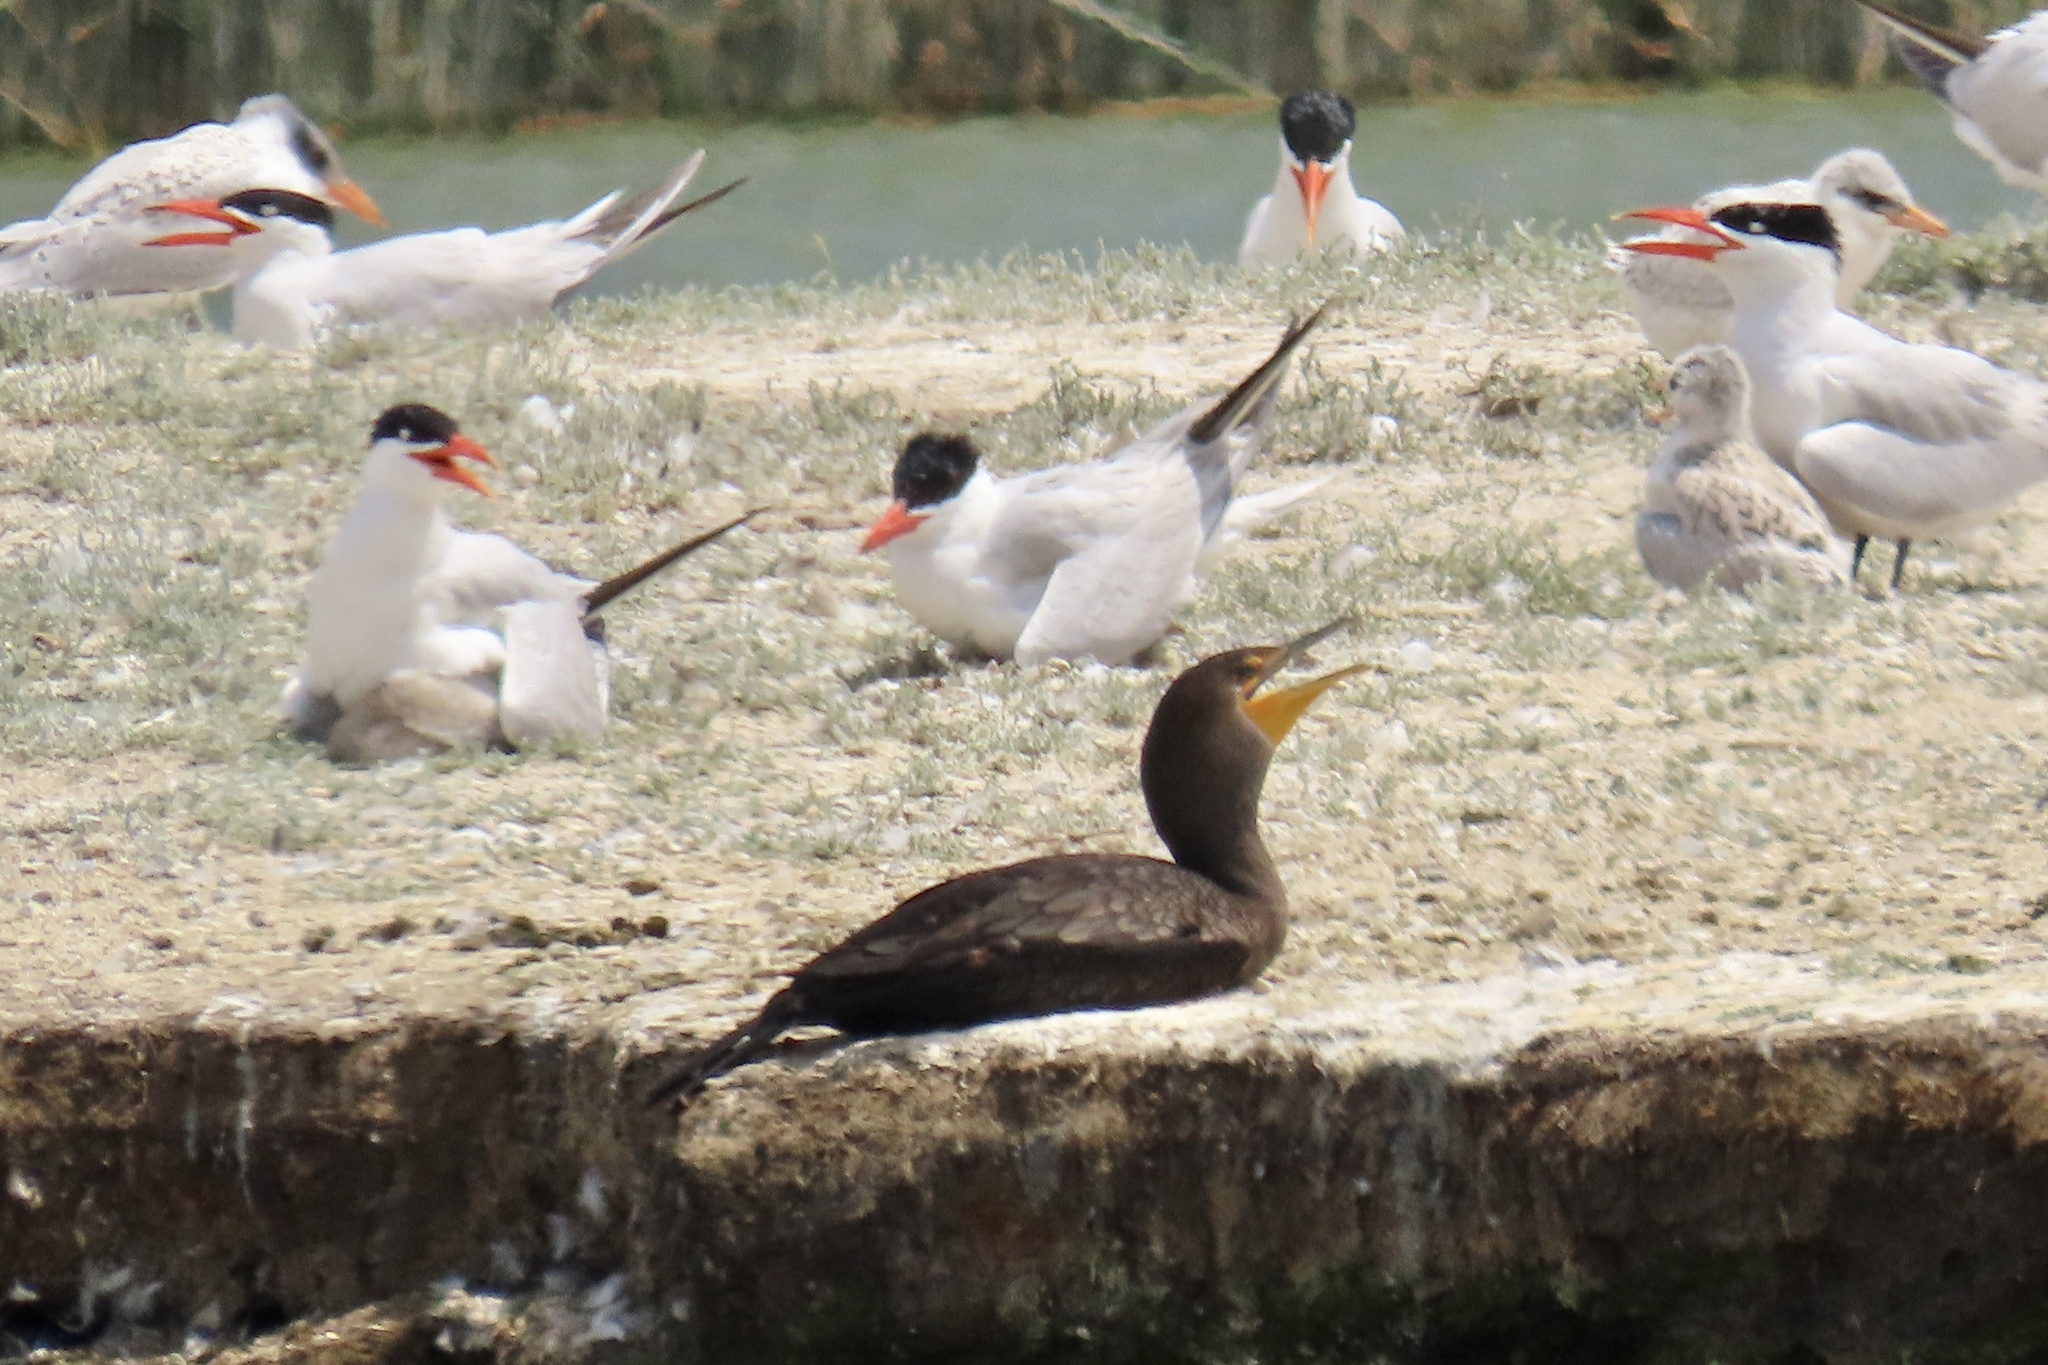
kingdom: Animalia
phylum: Chordata
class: Aves
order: Suliformes
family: Phalacrocoracidae
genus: Phalacrocorax
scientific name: Phalacrocorax auritus
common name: Double-crested cormorant
